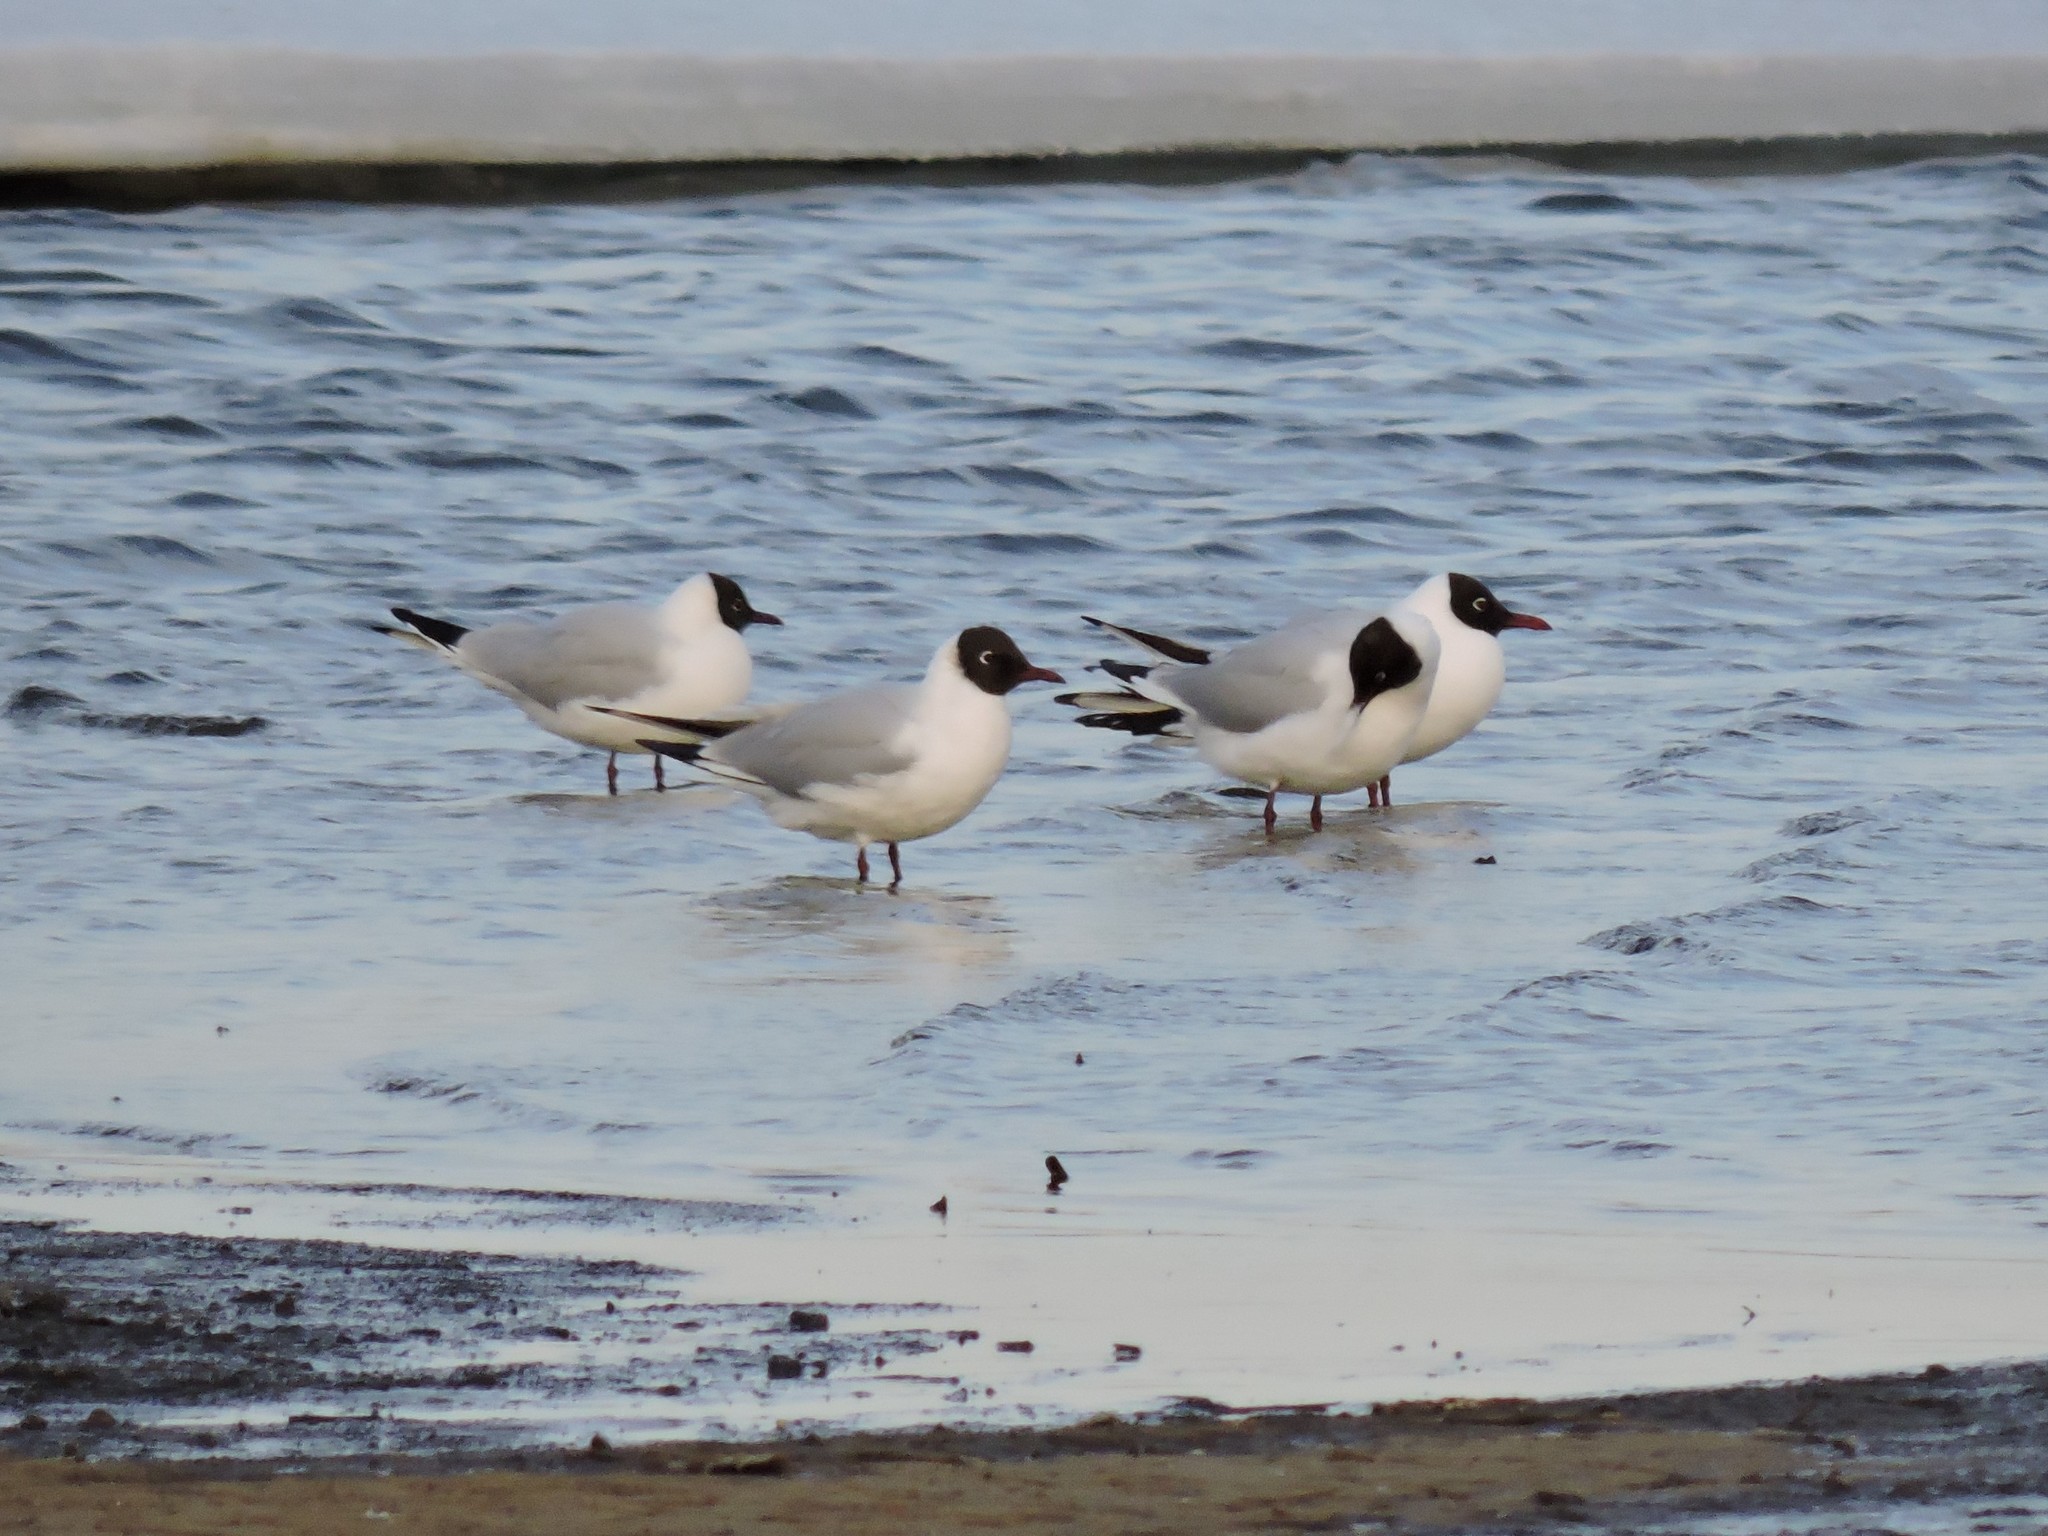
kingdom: Animalia
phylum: Chordata
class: Aves
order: Charadriiformes
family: Laridae
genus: Chroicocephalus
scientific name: Chroicocephalus ridibundus
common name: Black-headed gull
